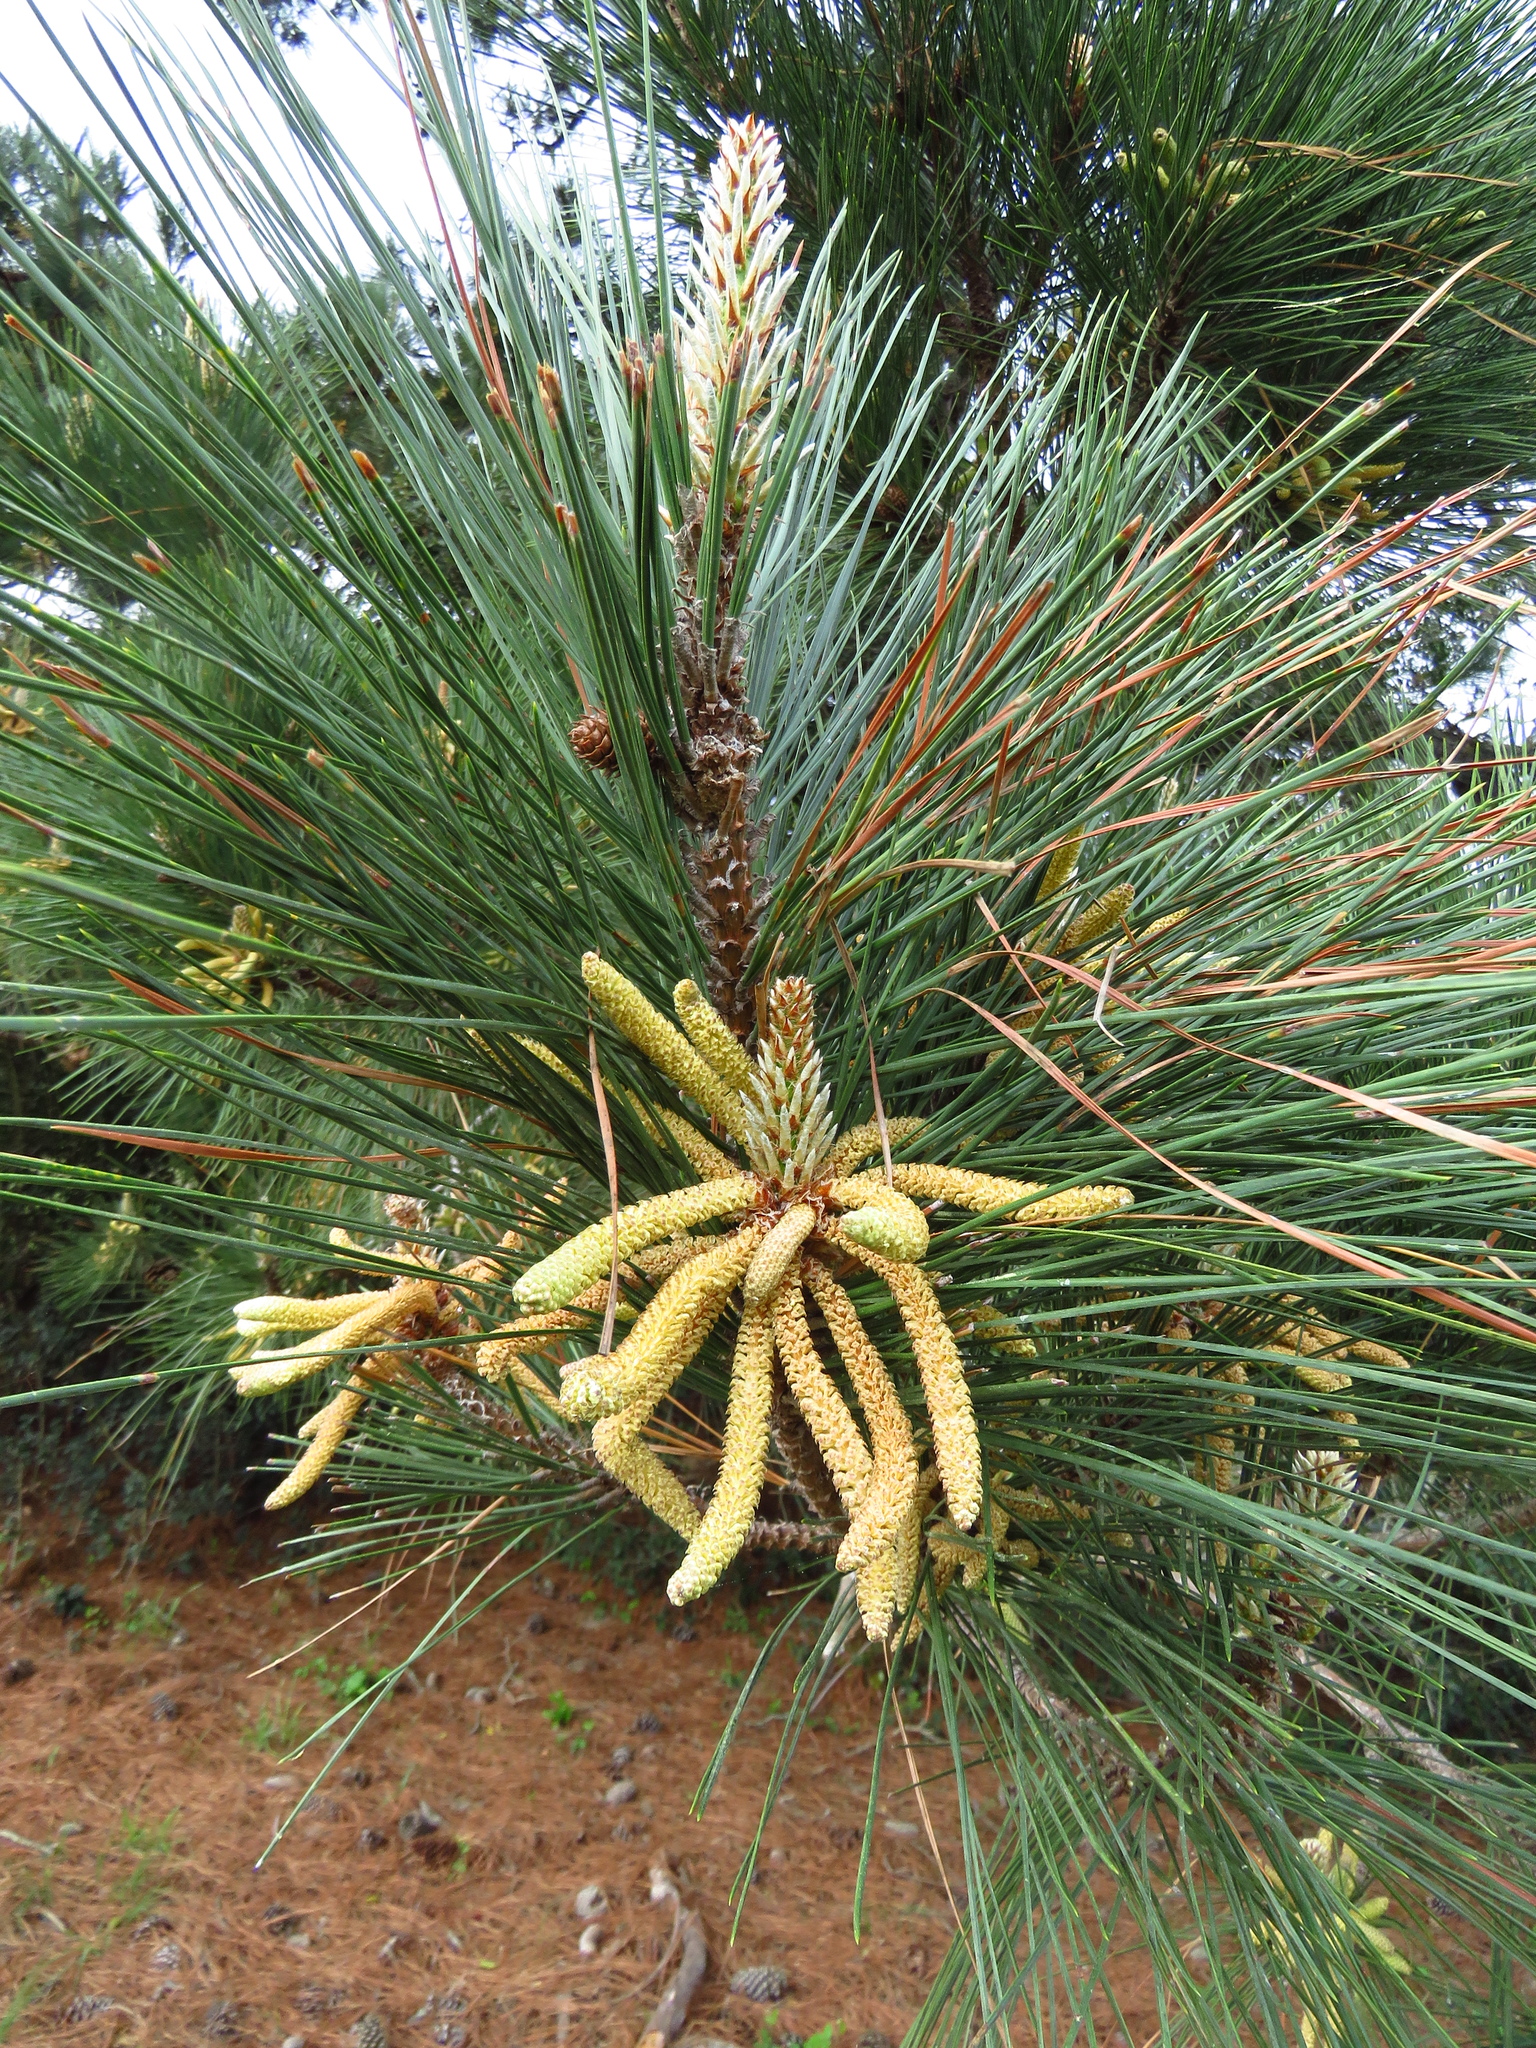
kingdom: Plantae
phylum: Tracheophyta
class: Pinopsida
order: Pinales
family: Pinaceae
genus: Pinus
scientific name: Pinus taeda
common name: Loblolly pine
